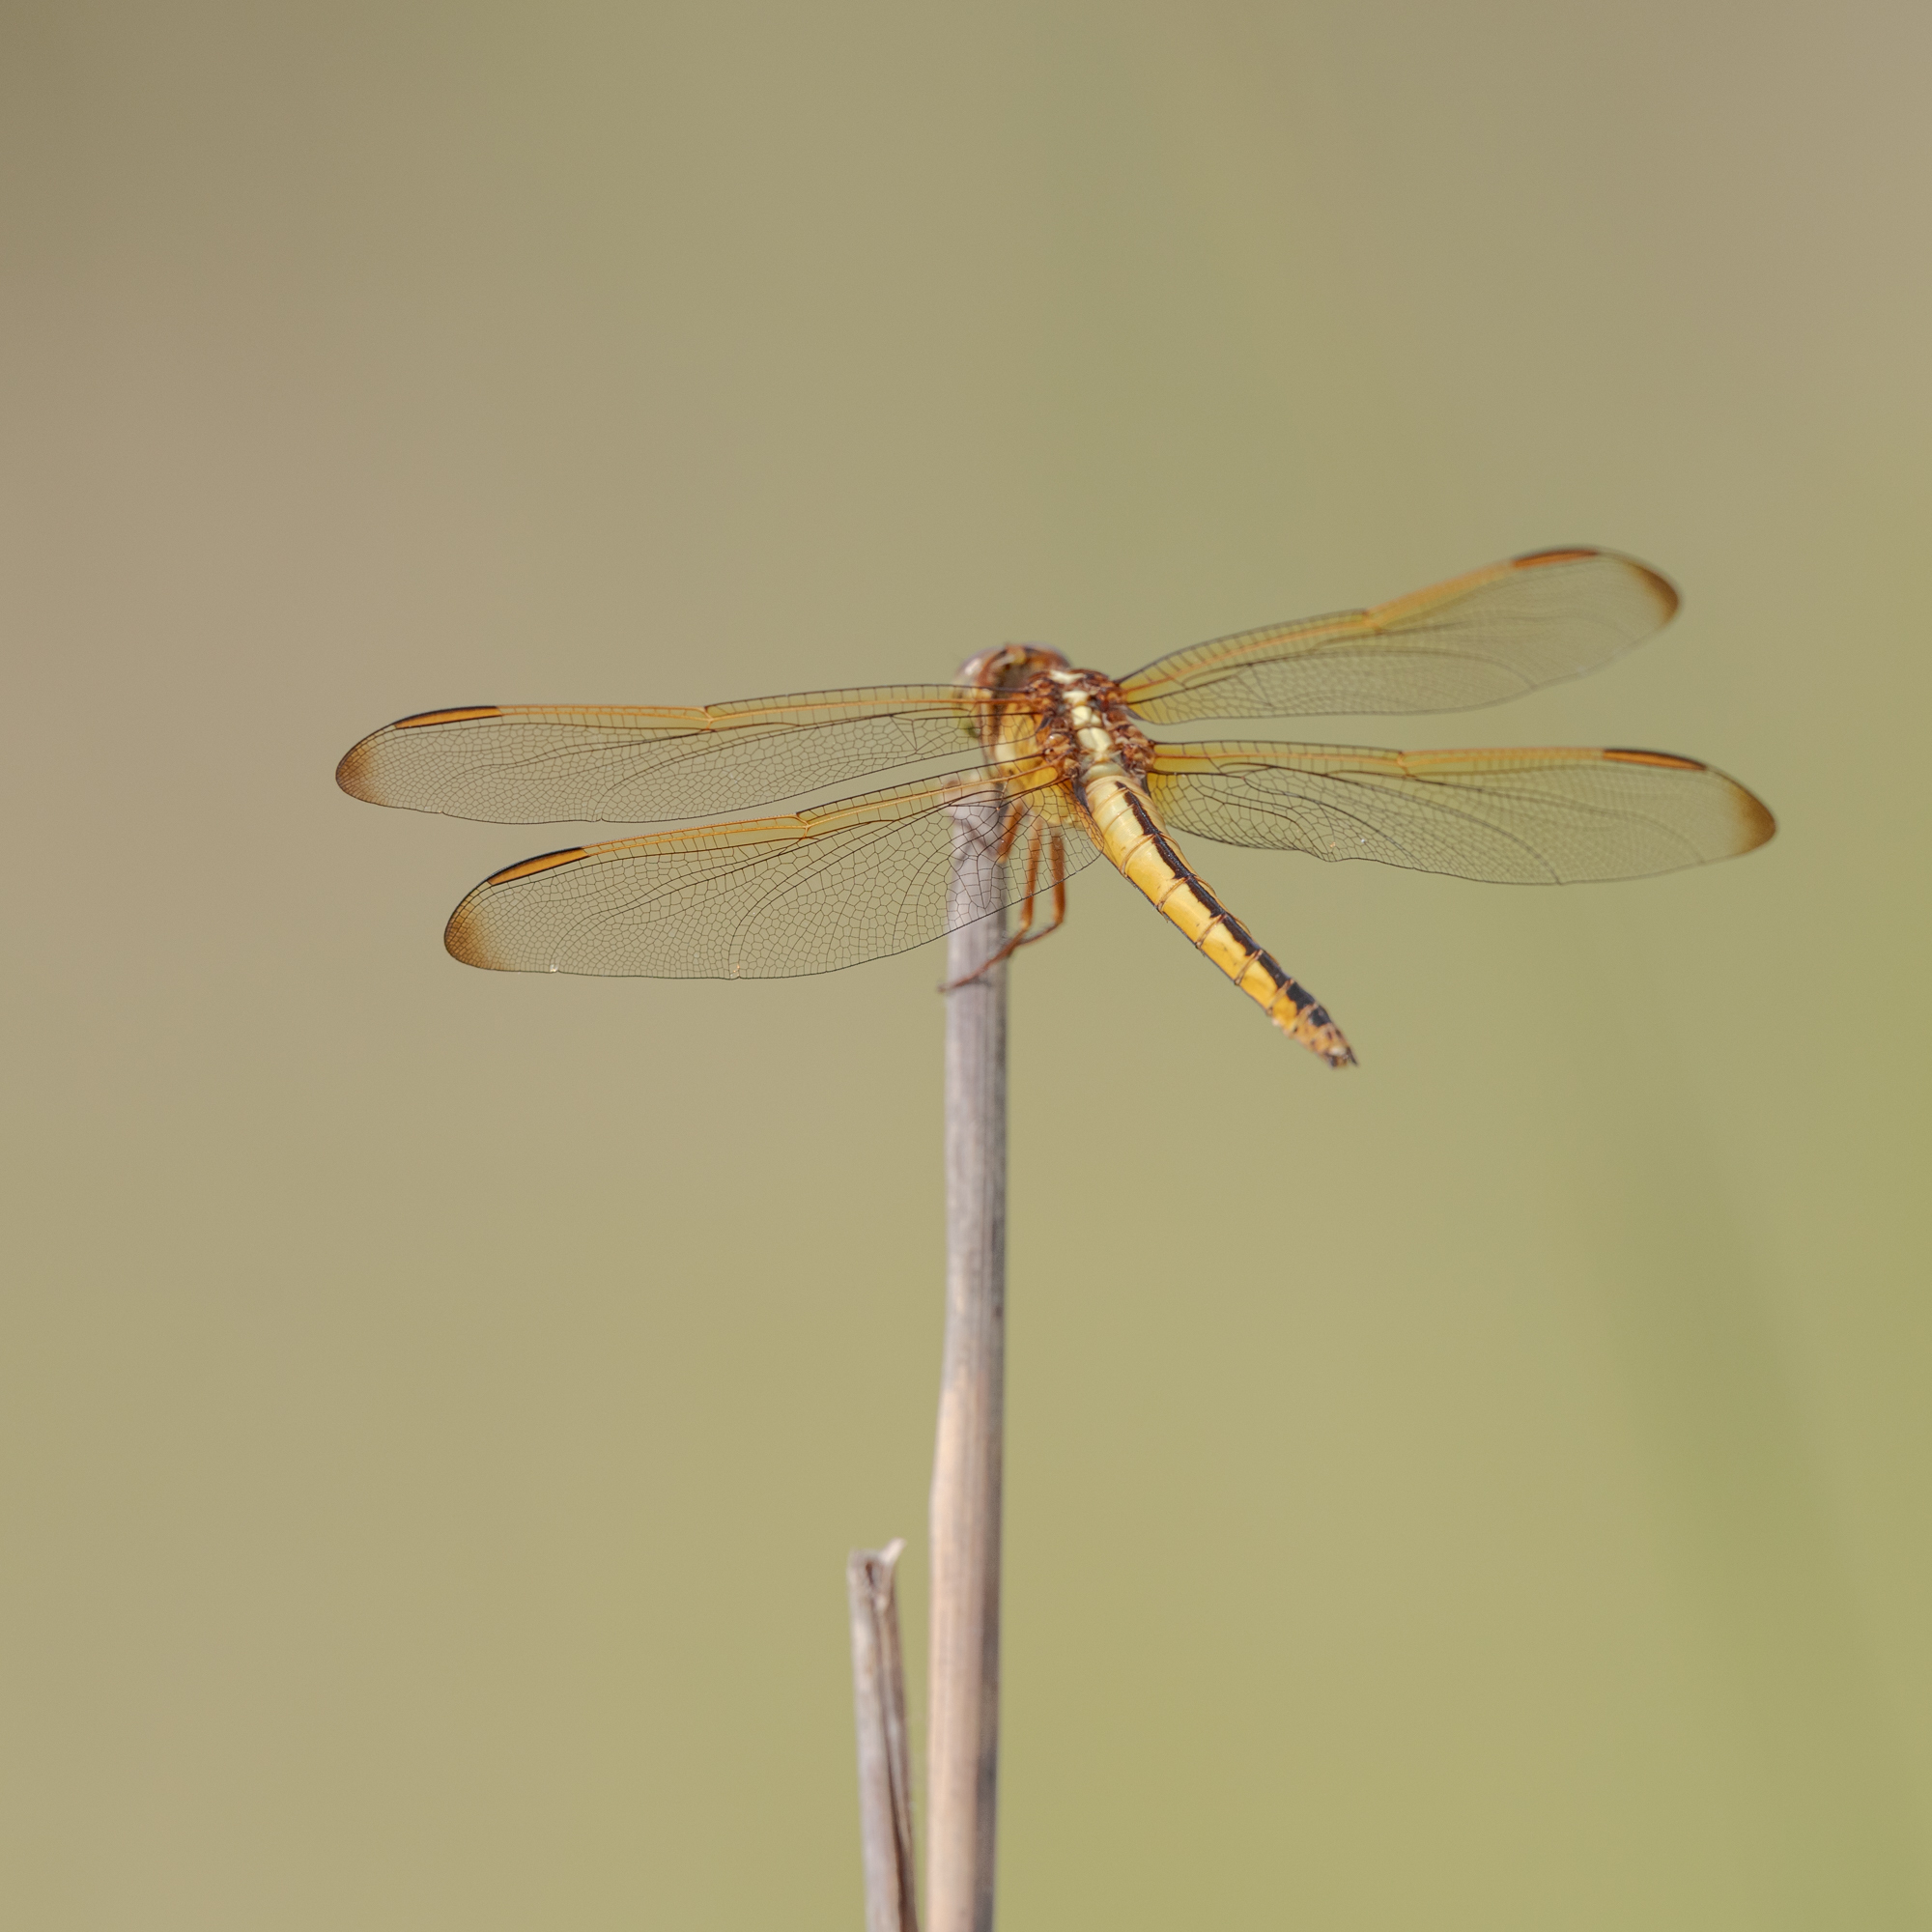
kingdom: Animalia
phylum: Arthropoda
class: Insecta
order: Odonata
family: Libellulidae
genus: Libellula
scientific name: Libellula needhami
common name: Needham's skimmer
